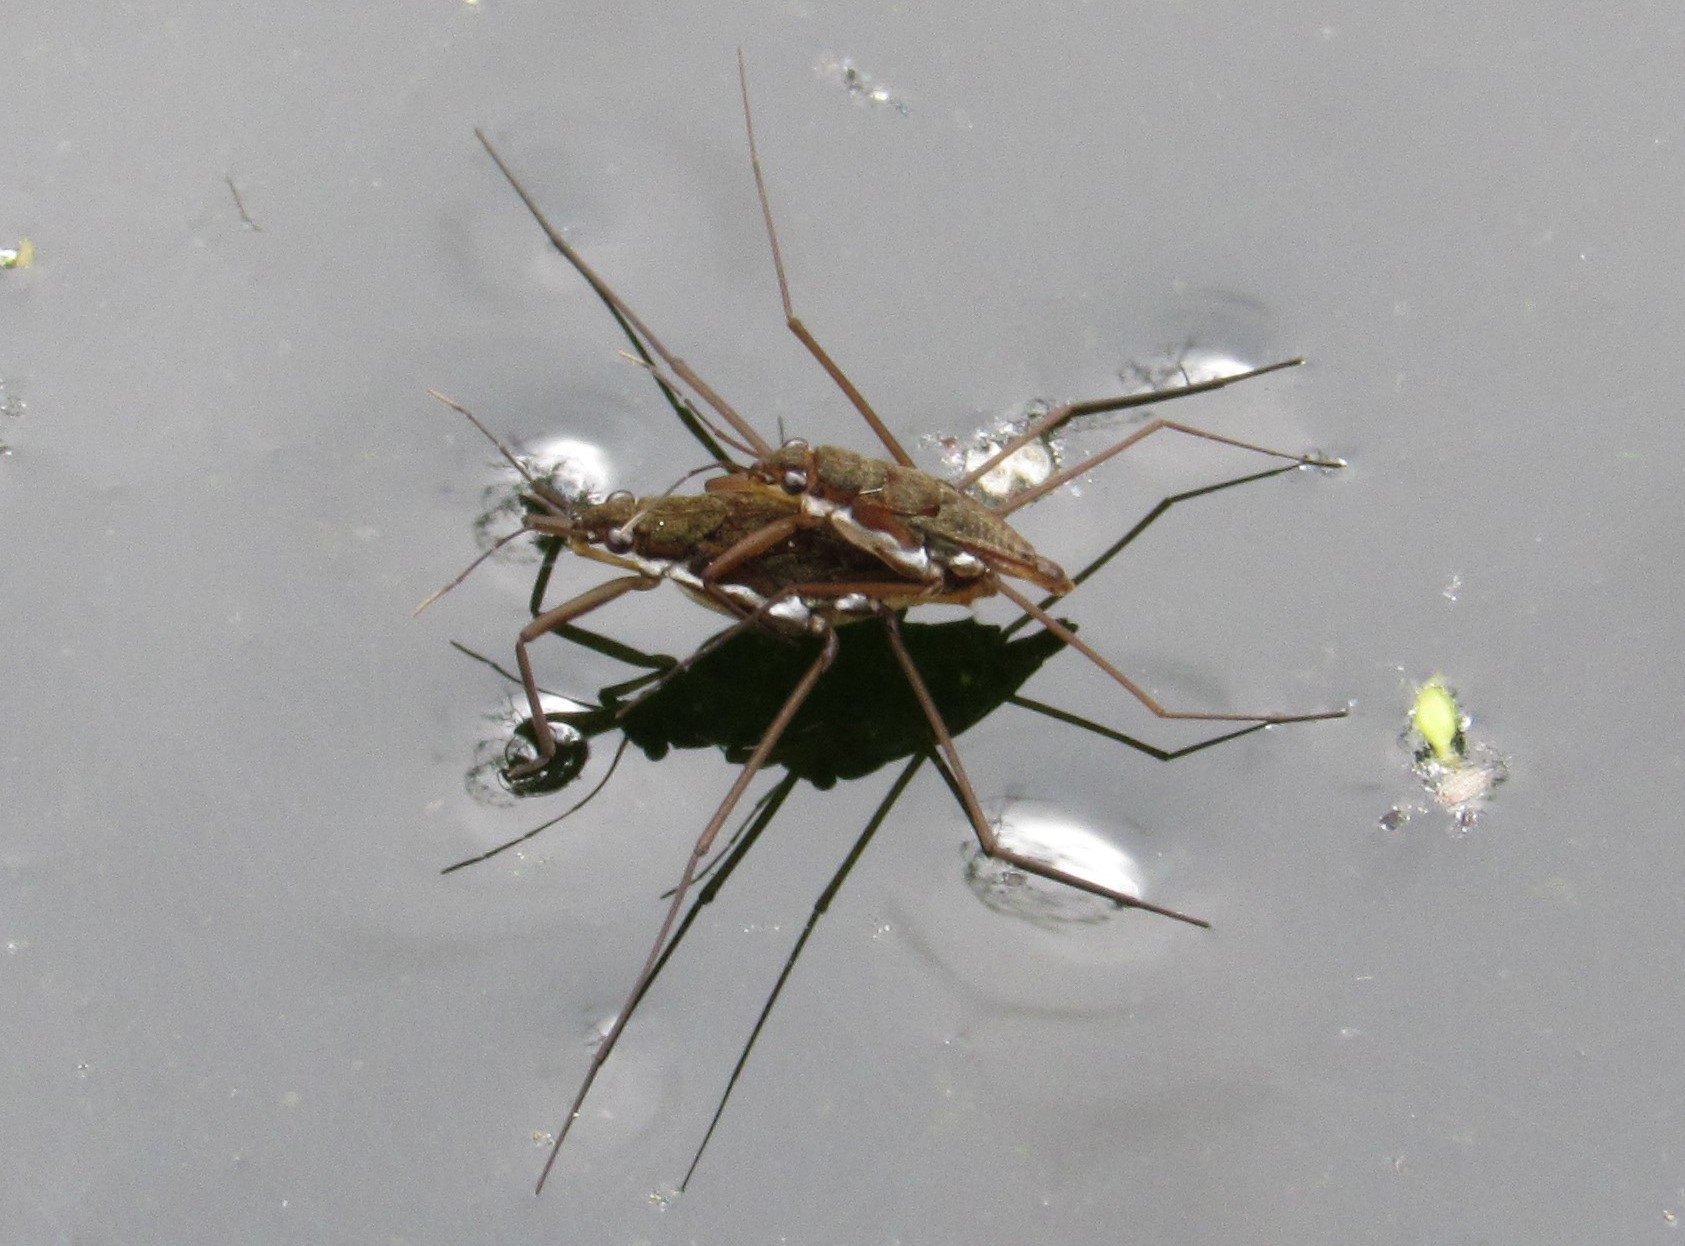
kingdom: Animalia
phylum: Arthropoda
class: Insecta
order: Hemiptera
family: Gerridae
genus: Eurygerris
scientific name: Eurygerris
